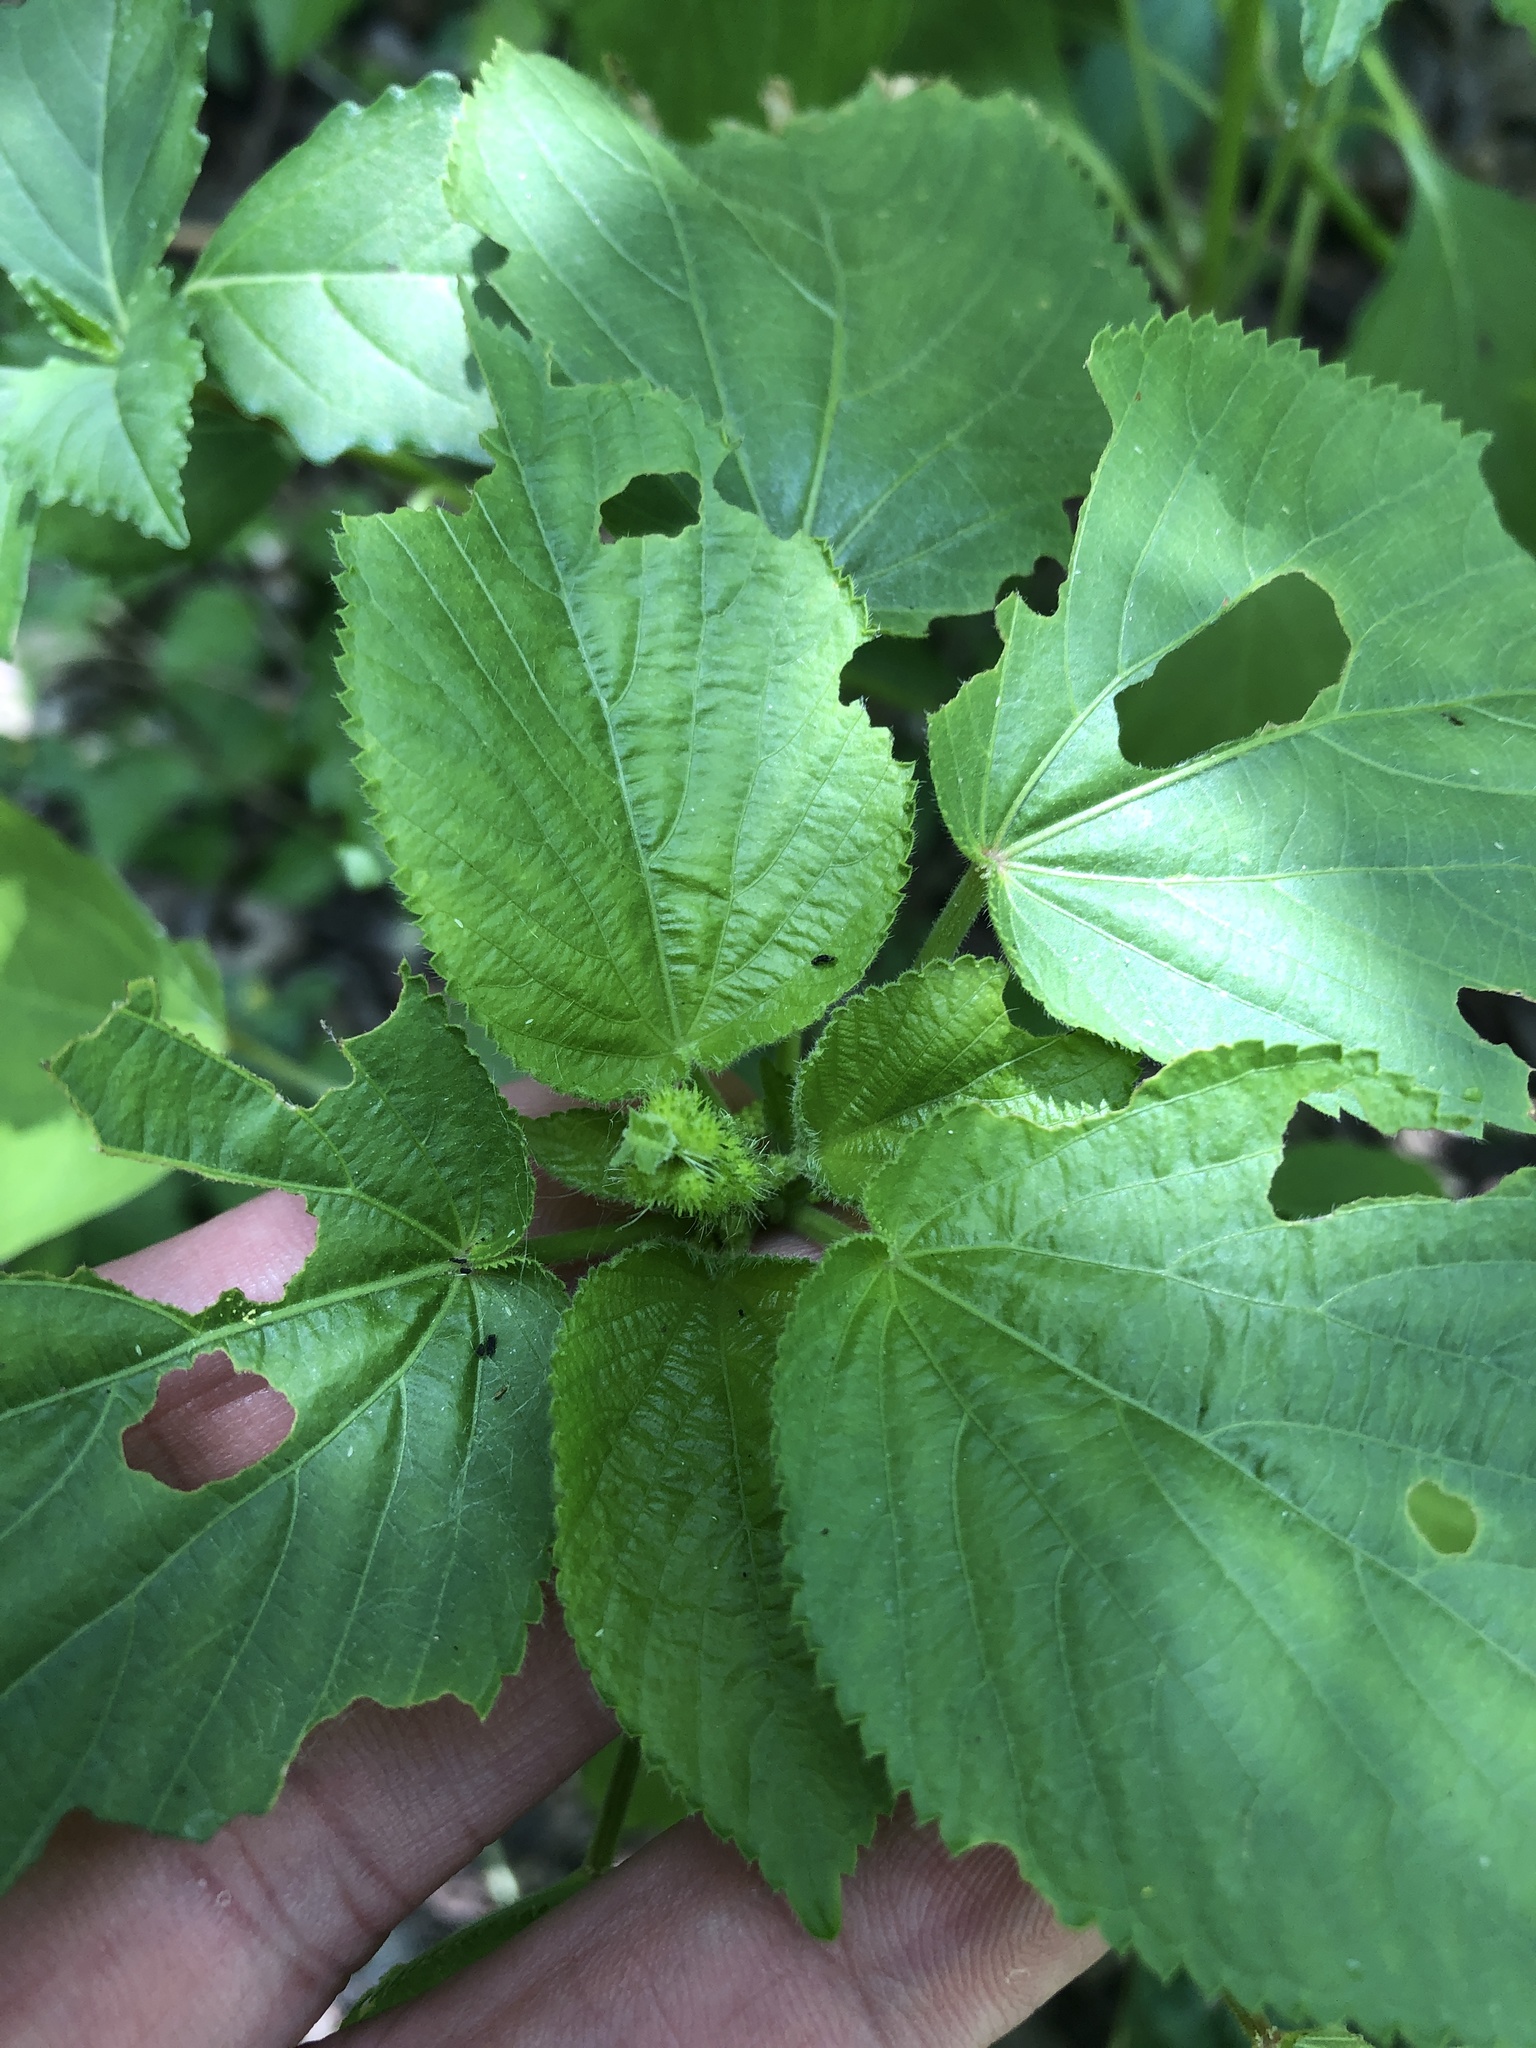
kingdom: Plantae
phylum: Tracheophyta
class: Magnoliopsida
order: Malpighiales
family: Euphorbiaceae
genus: Acalypha
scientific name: Acalypha ostryifolia
